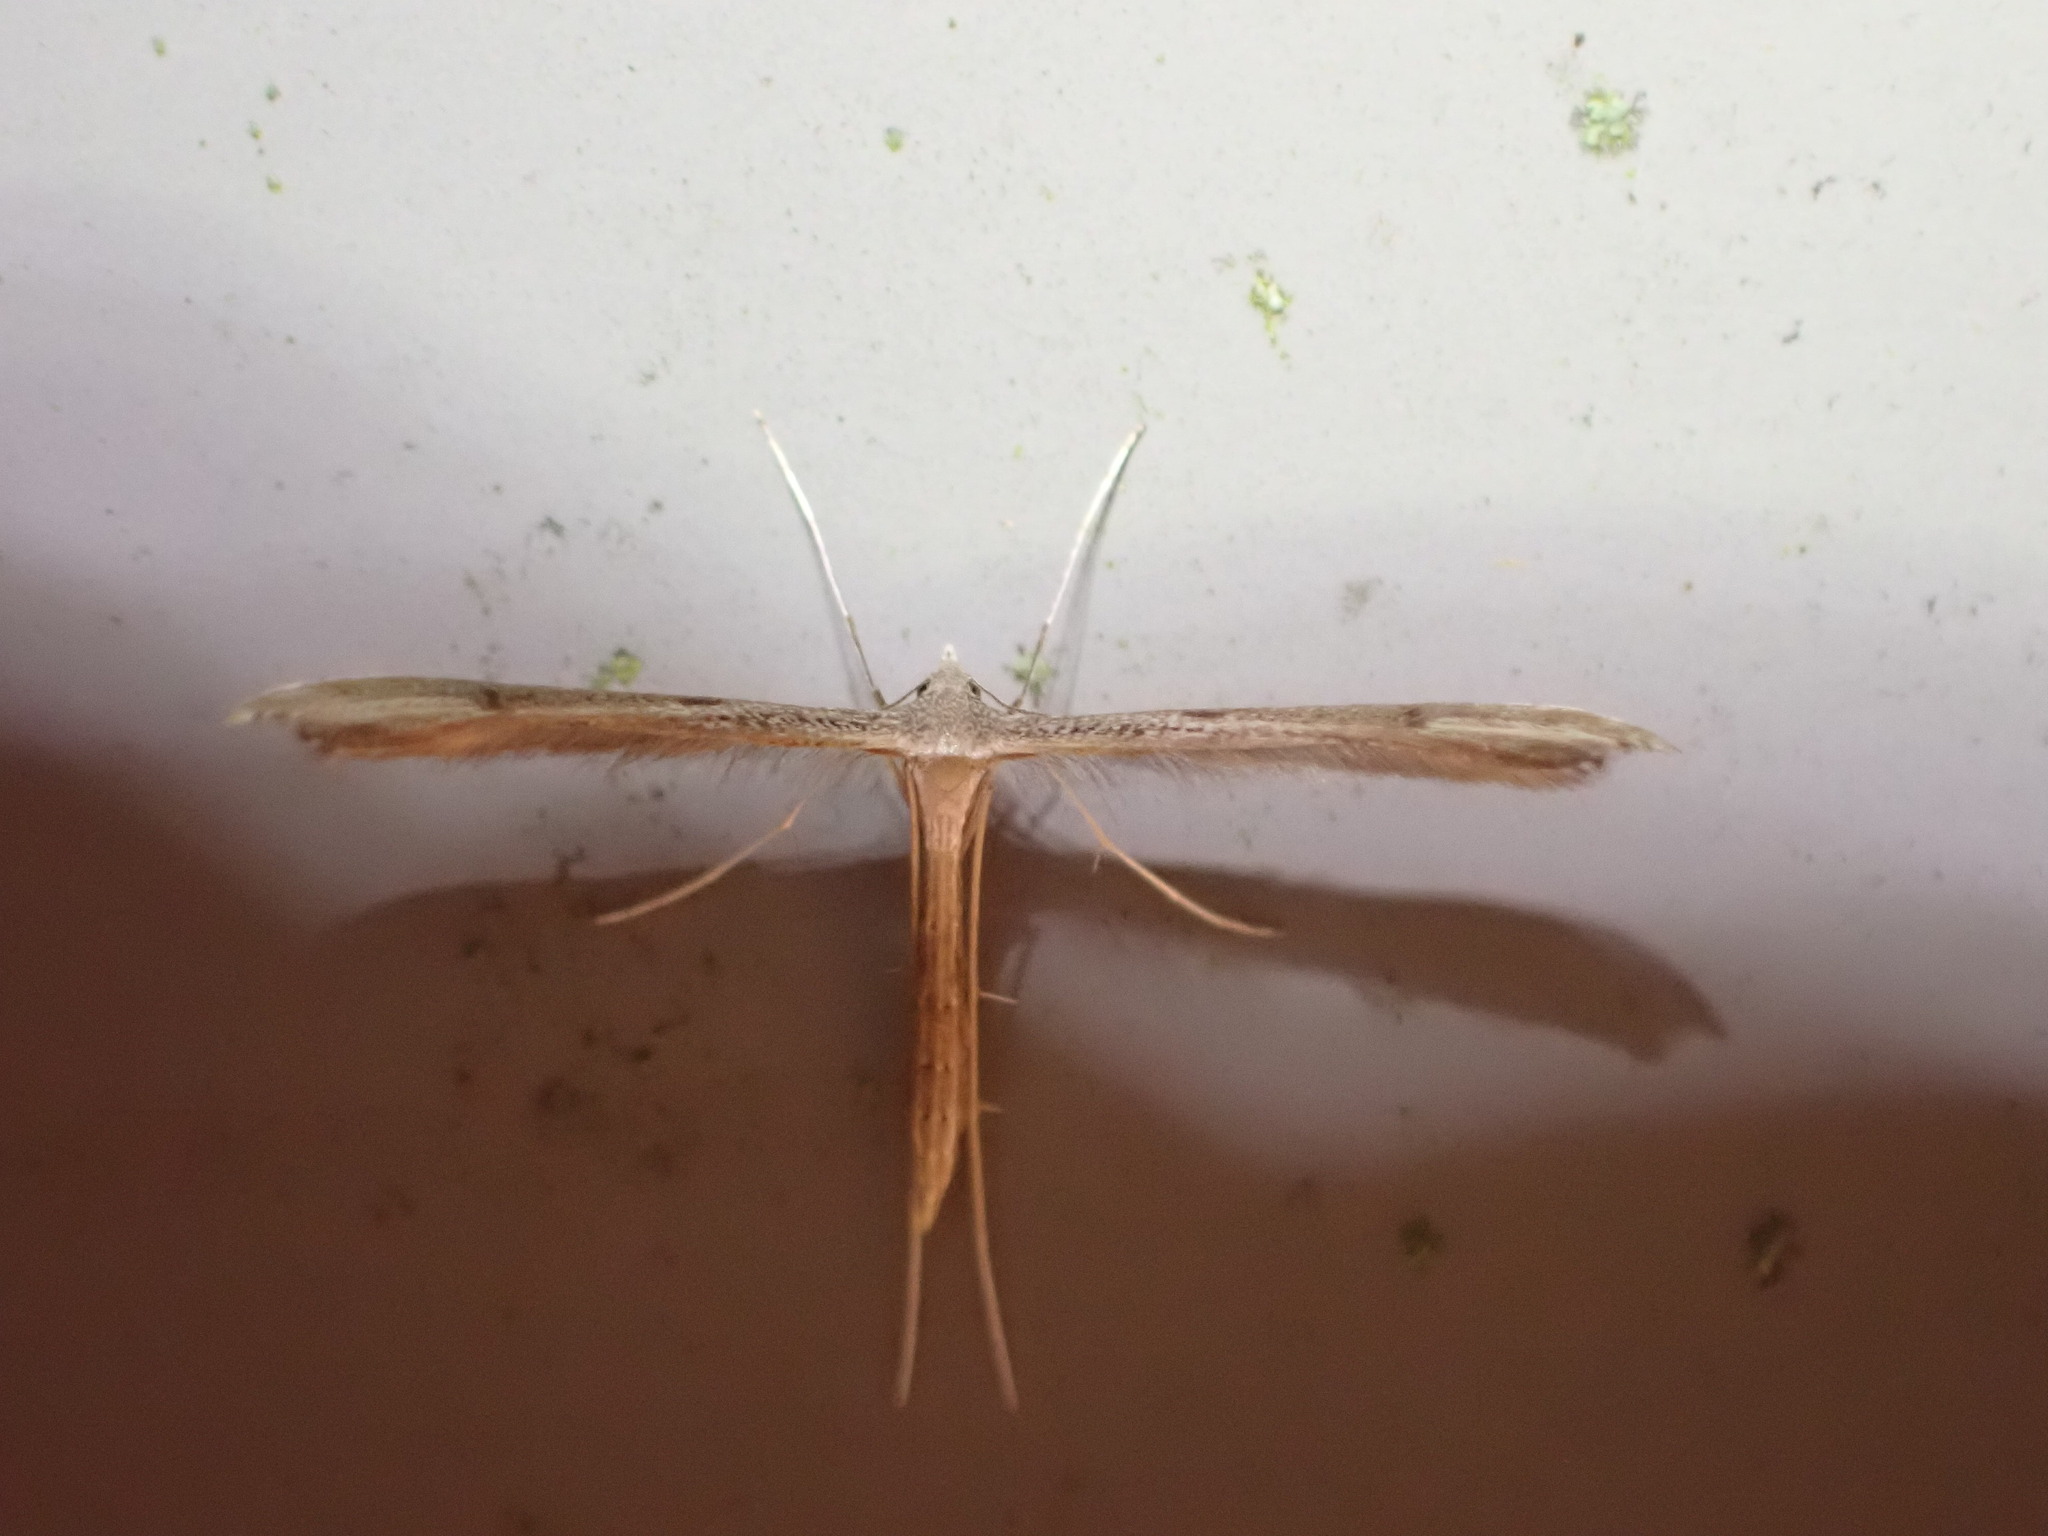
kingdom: Animalia
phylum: Arthropoda
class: Insecta
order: Lepidoptera
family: Pterophoridae
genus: Stenoptilia
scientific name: Stenoptilia zophodactylus
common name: Dowdy plume
